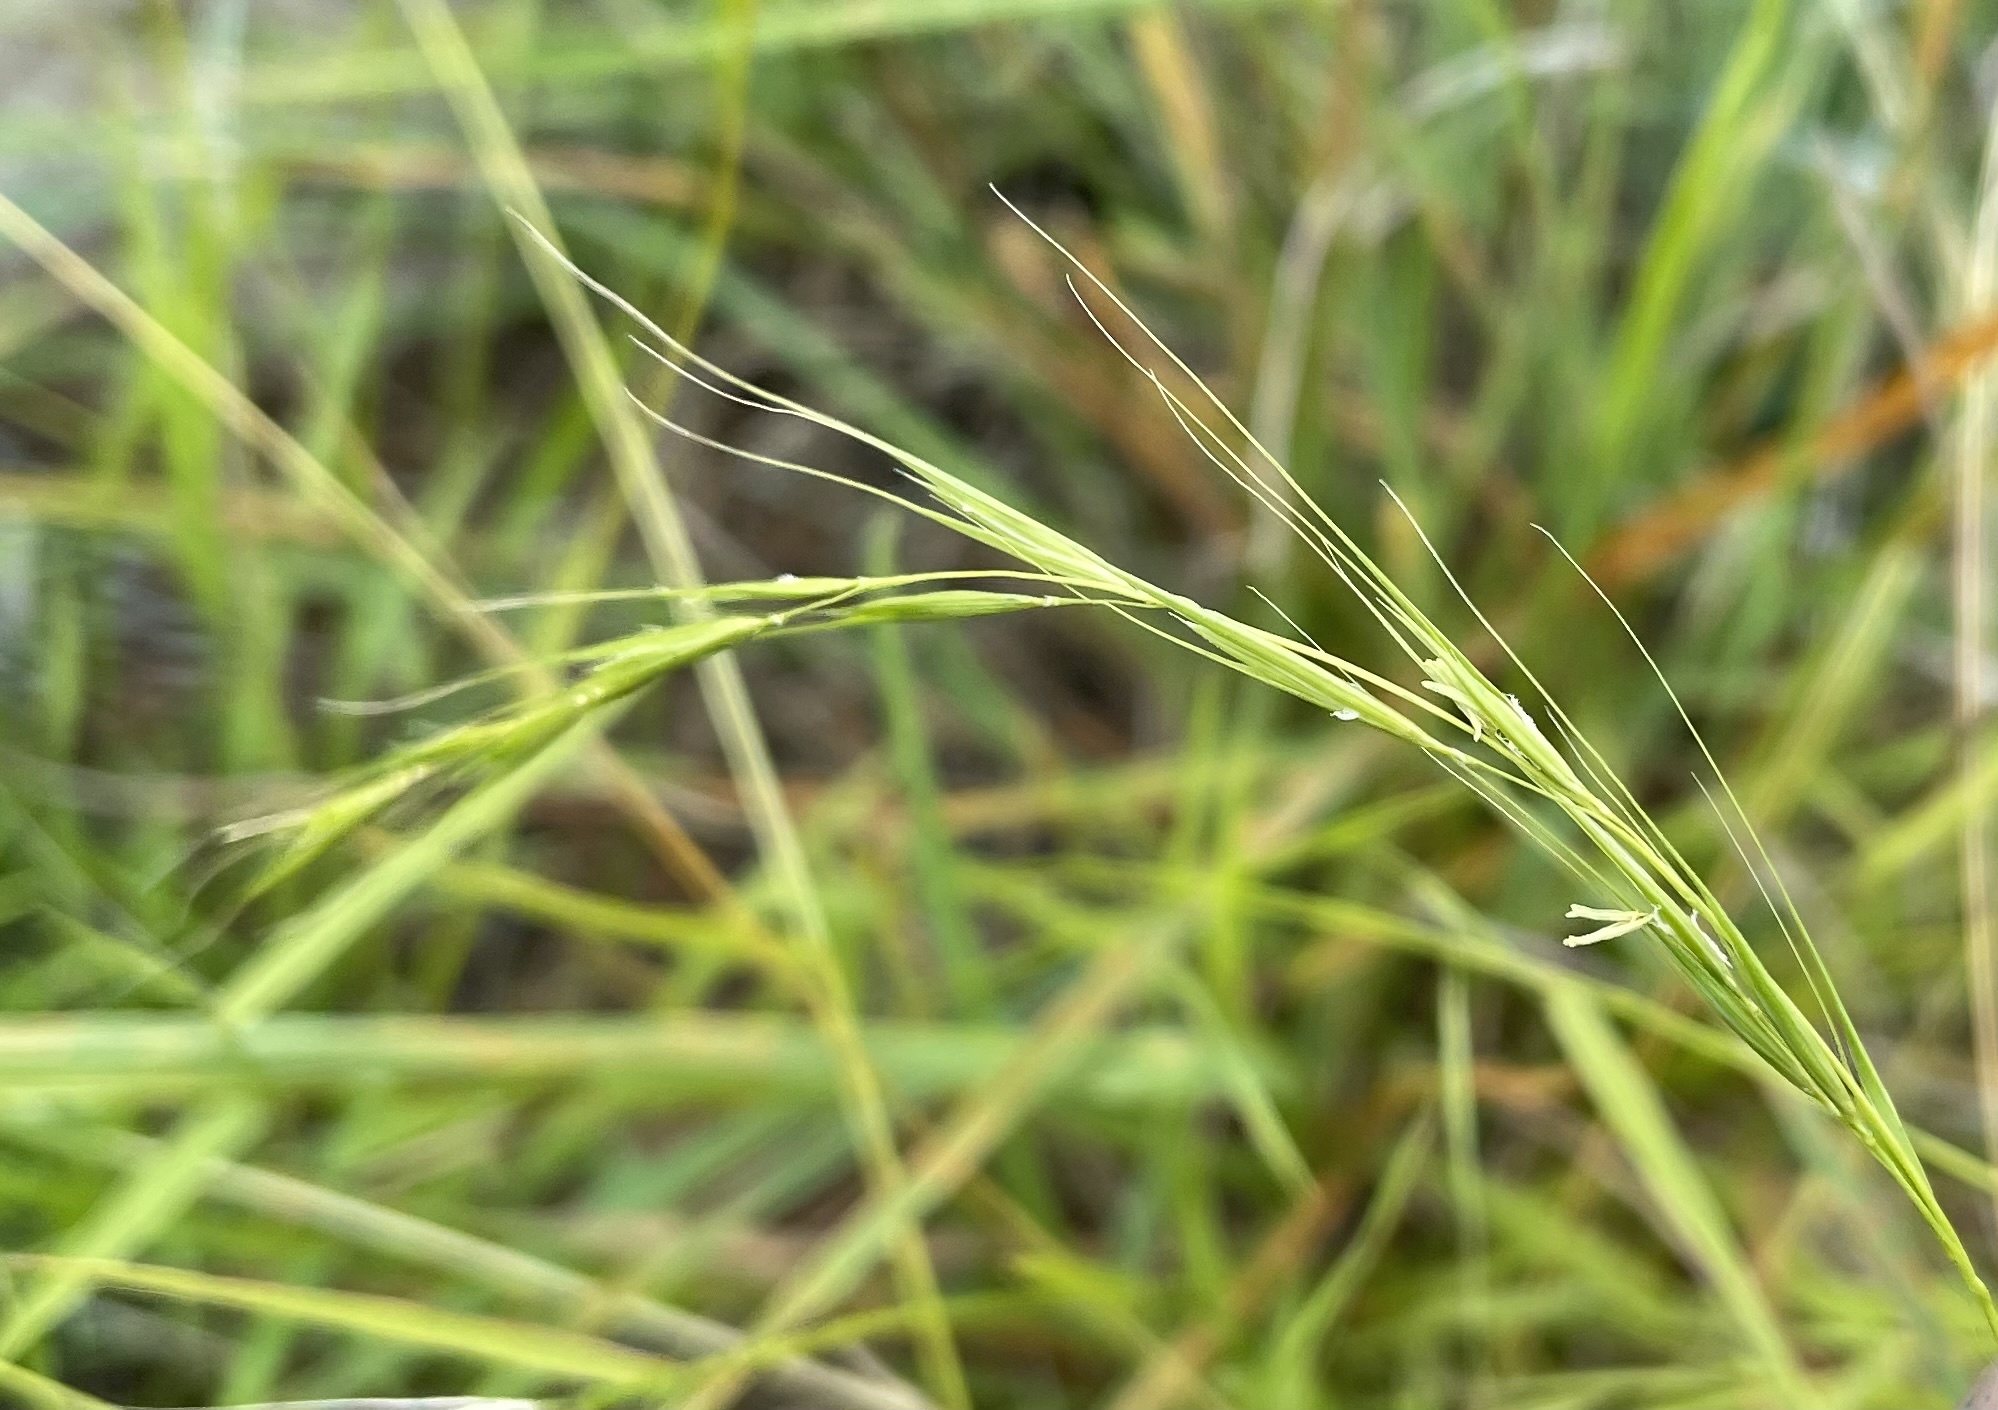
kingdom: Plantae
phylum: Tracheophyta
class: Liliopsida
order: Poales
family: Poaceae
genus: Microlaena
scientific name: Microlaena stipoides
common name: Meadow ricegrass
